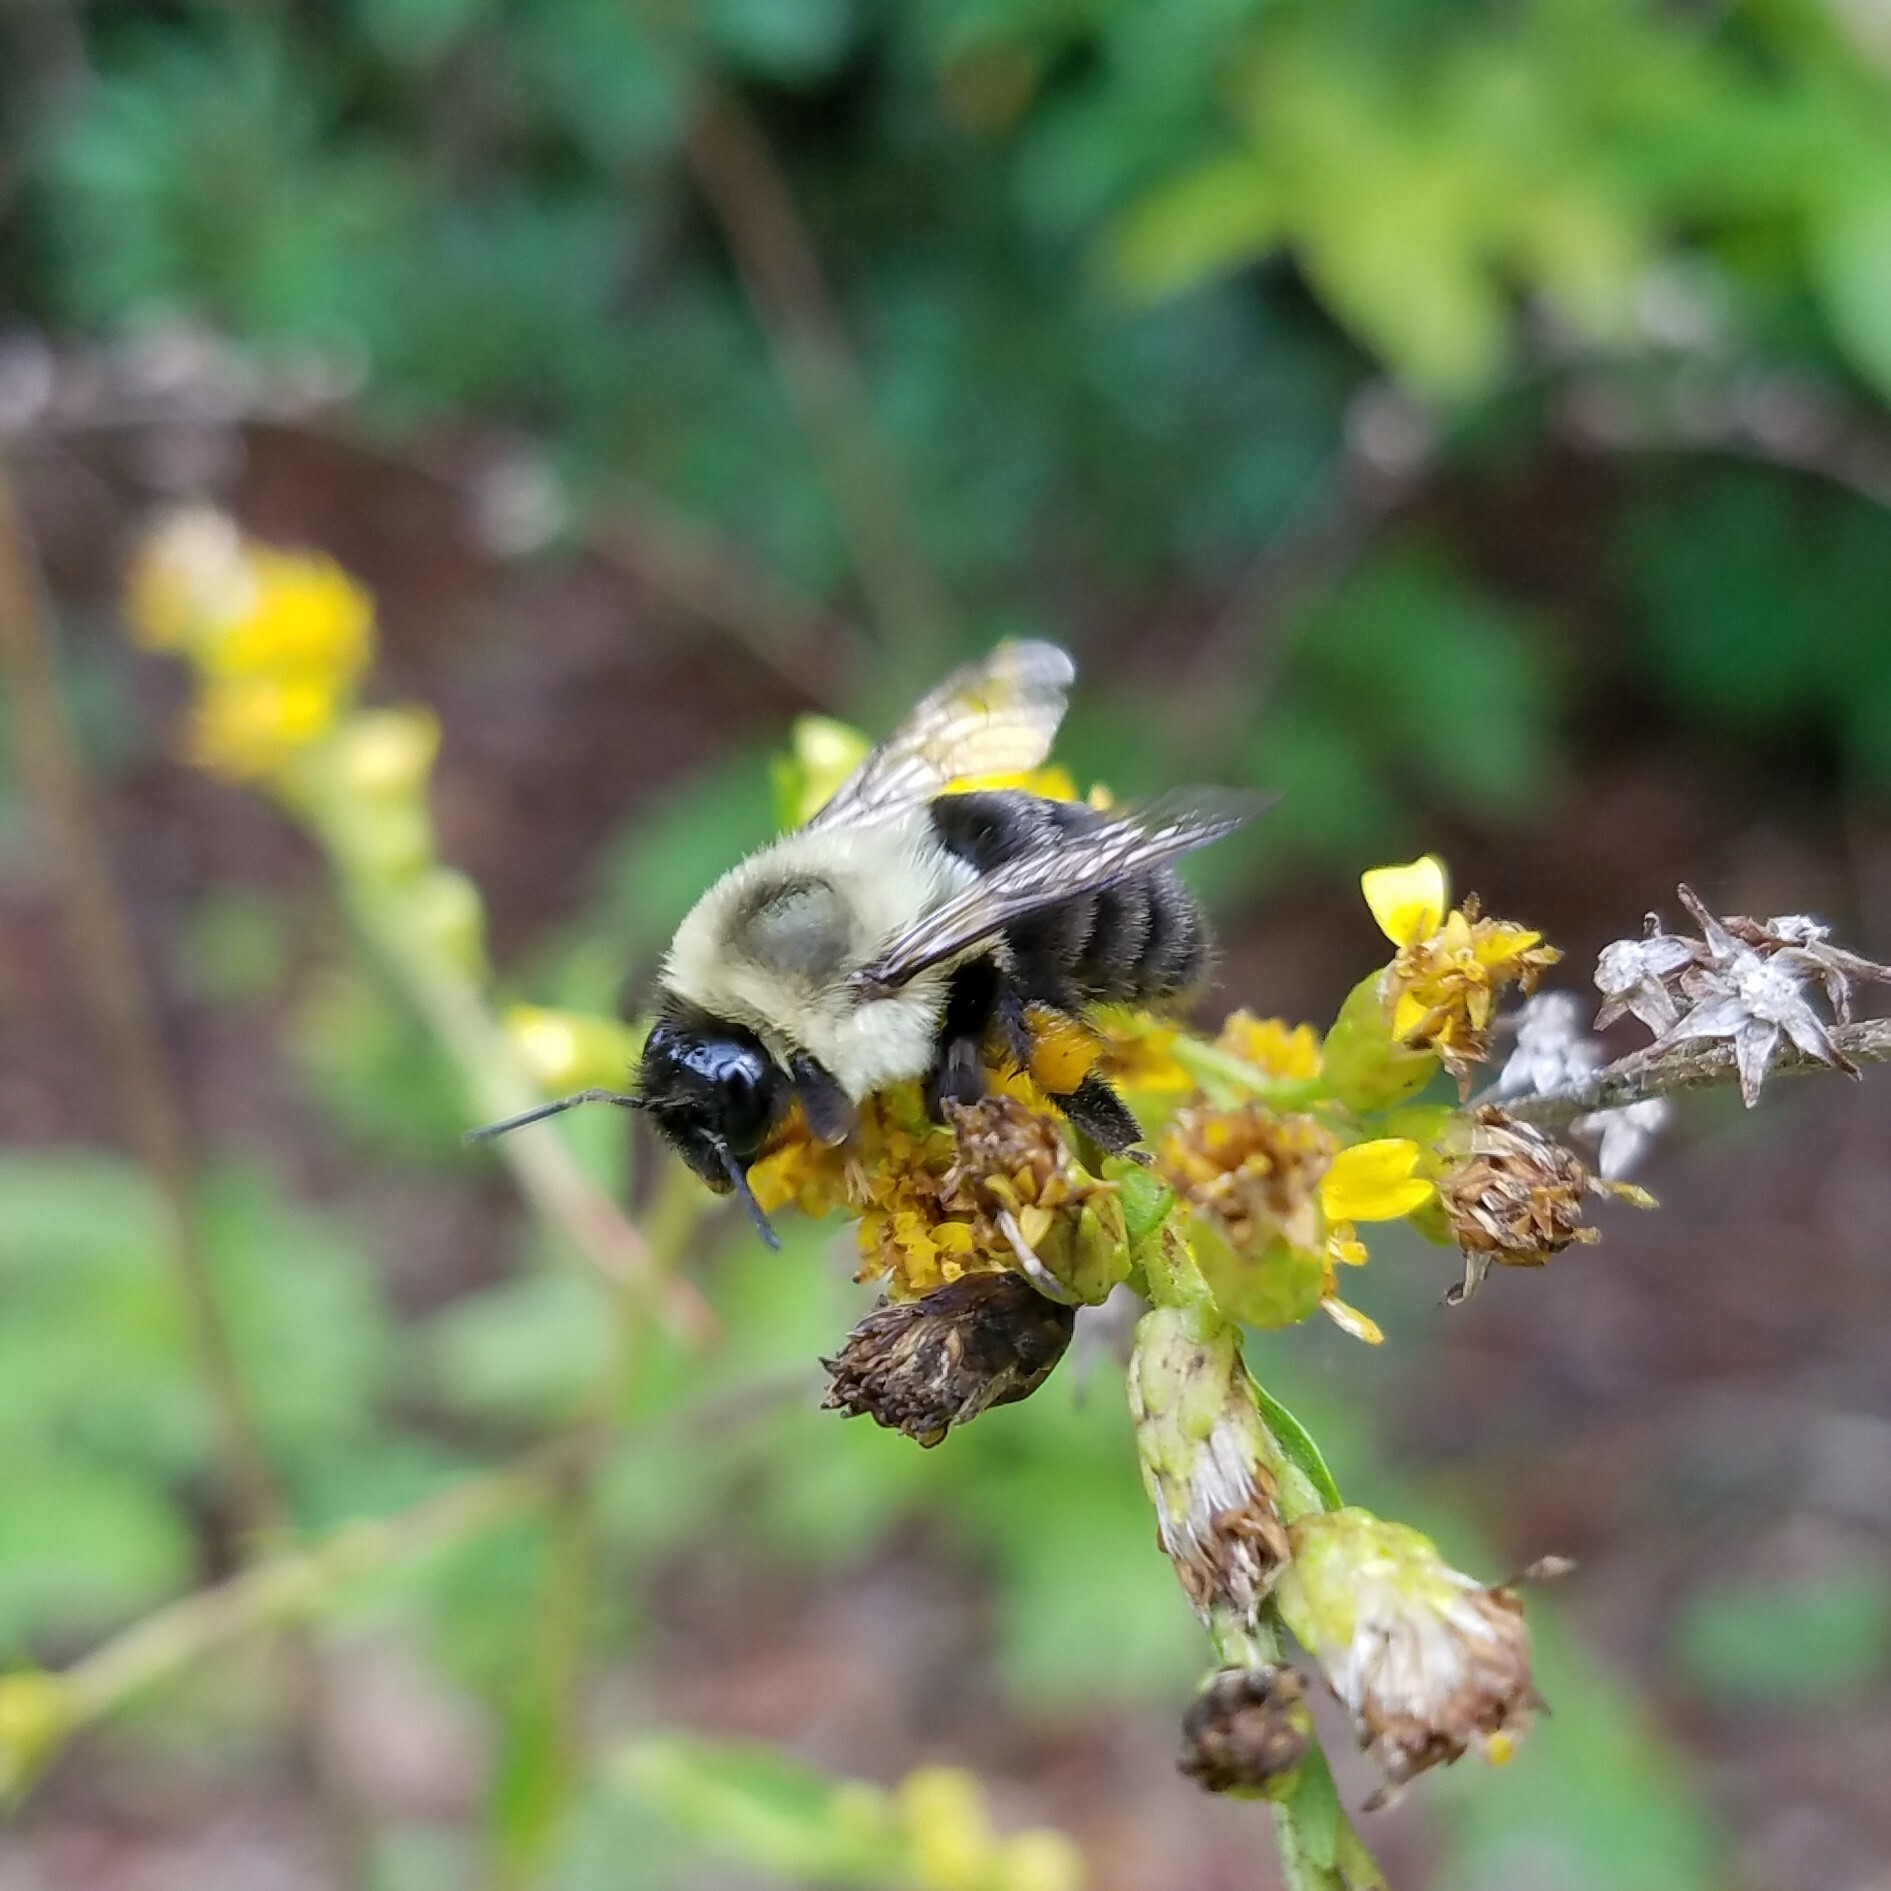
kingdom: Animalia
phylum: Arthropoda
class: Insecta
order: Hymenoptera
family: Apidae
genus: Bombus
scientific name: Bombus impatiens
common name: Common eastern bumble bee
